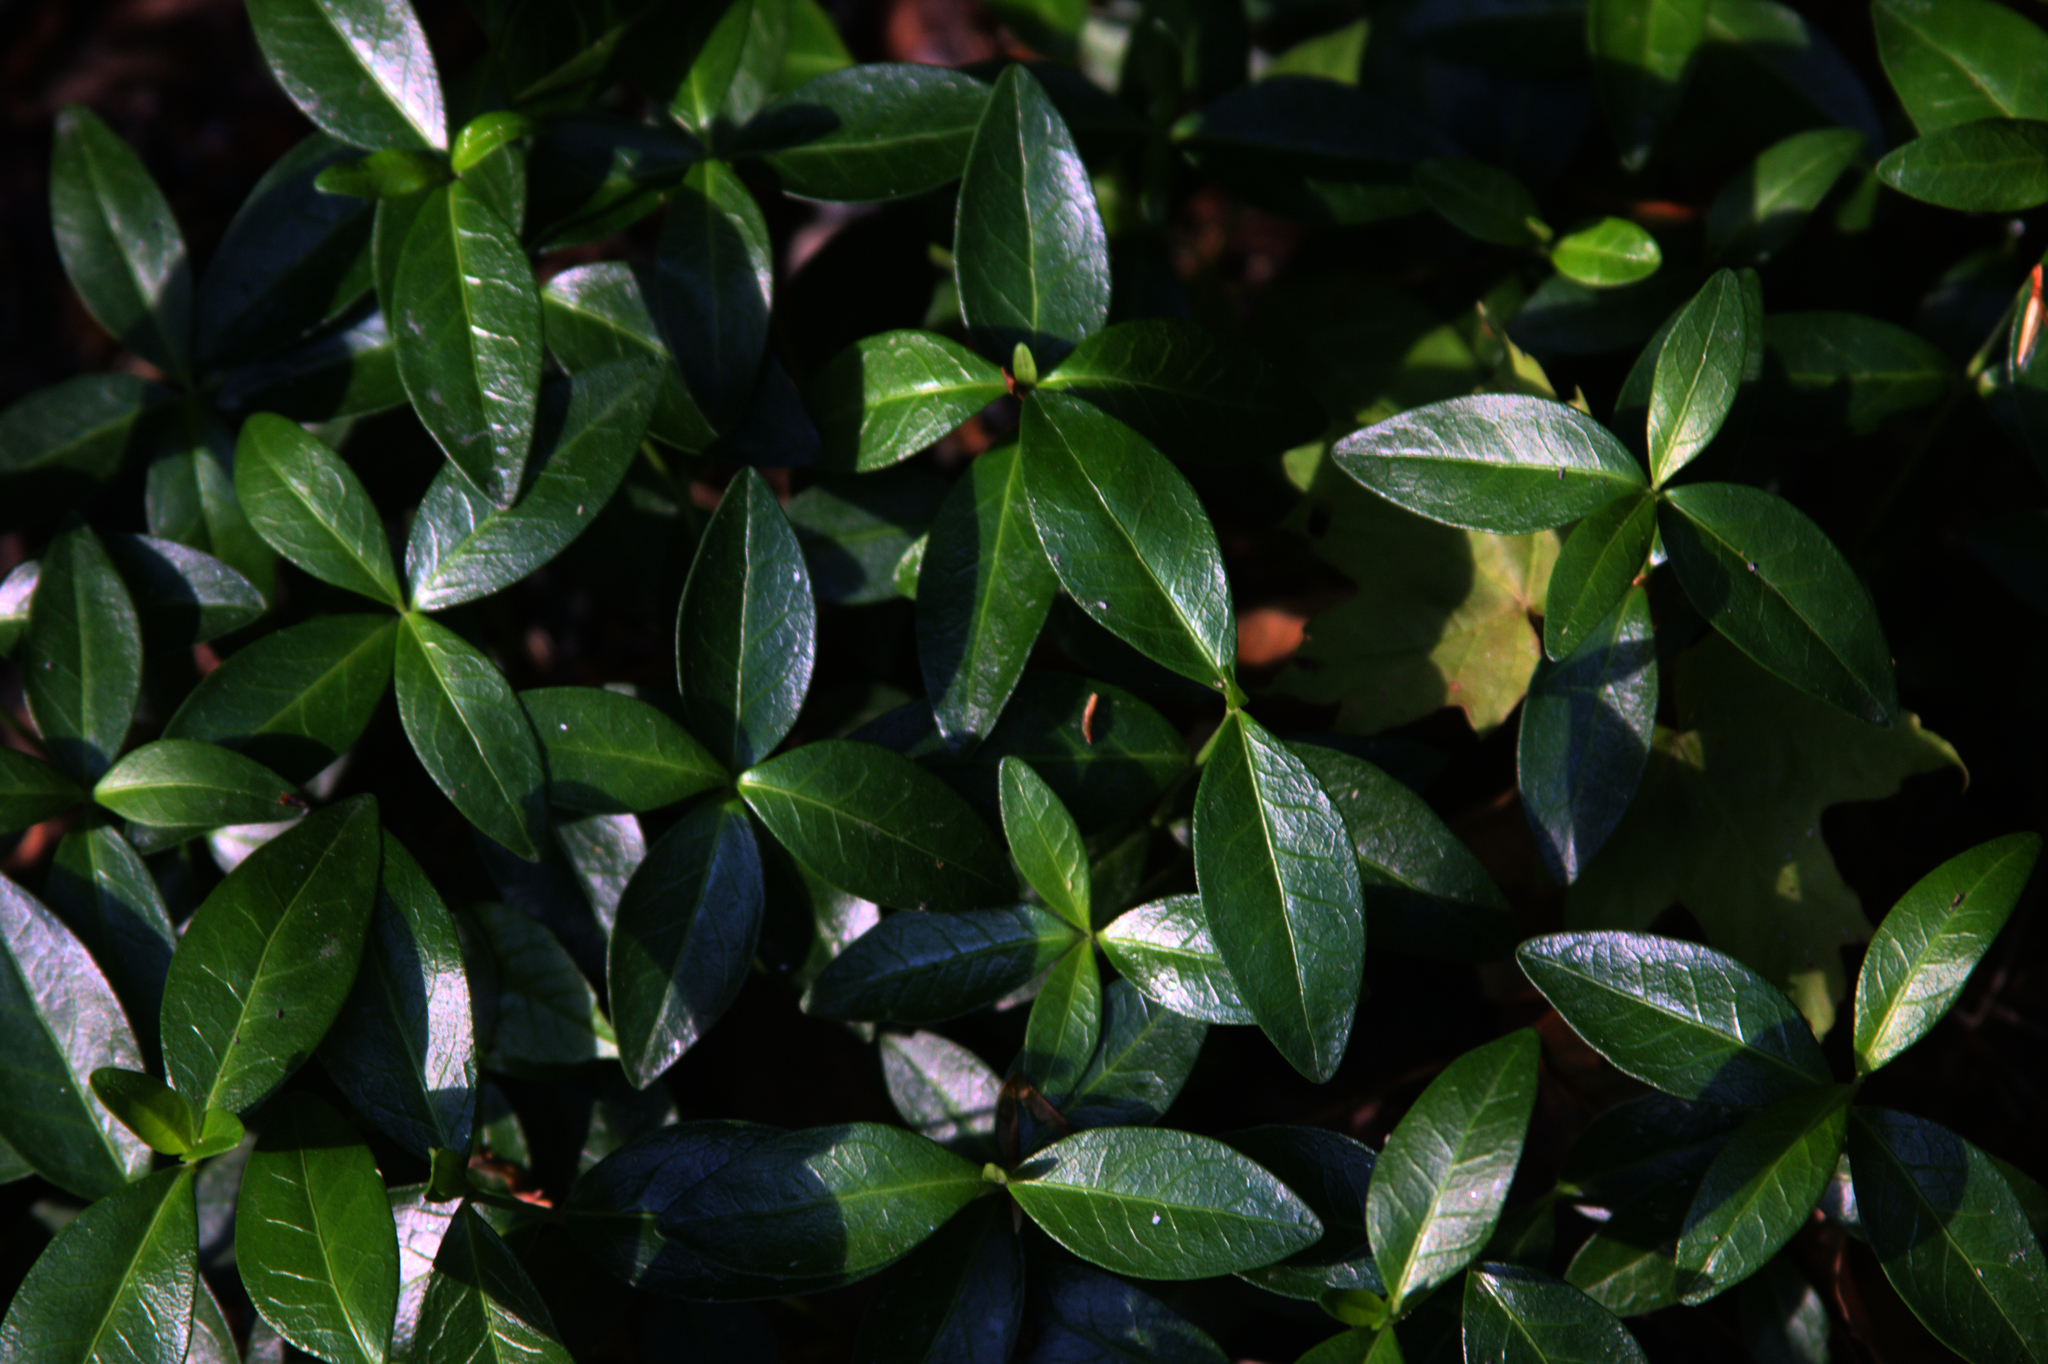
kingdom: Plantae
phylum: Tracheophyta
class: Magnoliopsida
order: Gentianales
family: Apocynaceae
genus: Vinca
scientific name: Vinca minor
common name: Lesser periwinkle
